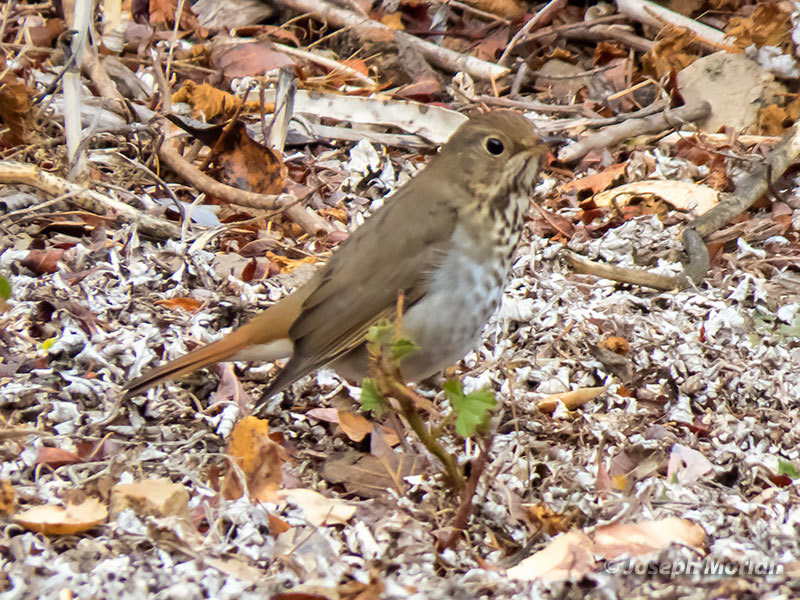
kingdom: Animalia
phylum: Chordata
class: Aves
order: Passeriformes
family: Turdidae
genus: Catharus
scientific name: Catharus guttatus
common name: Hermit thrush
